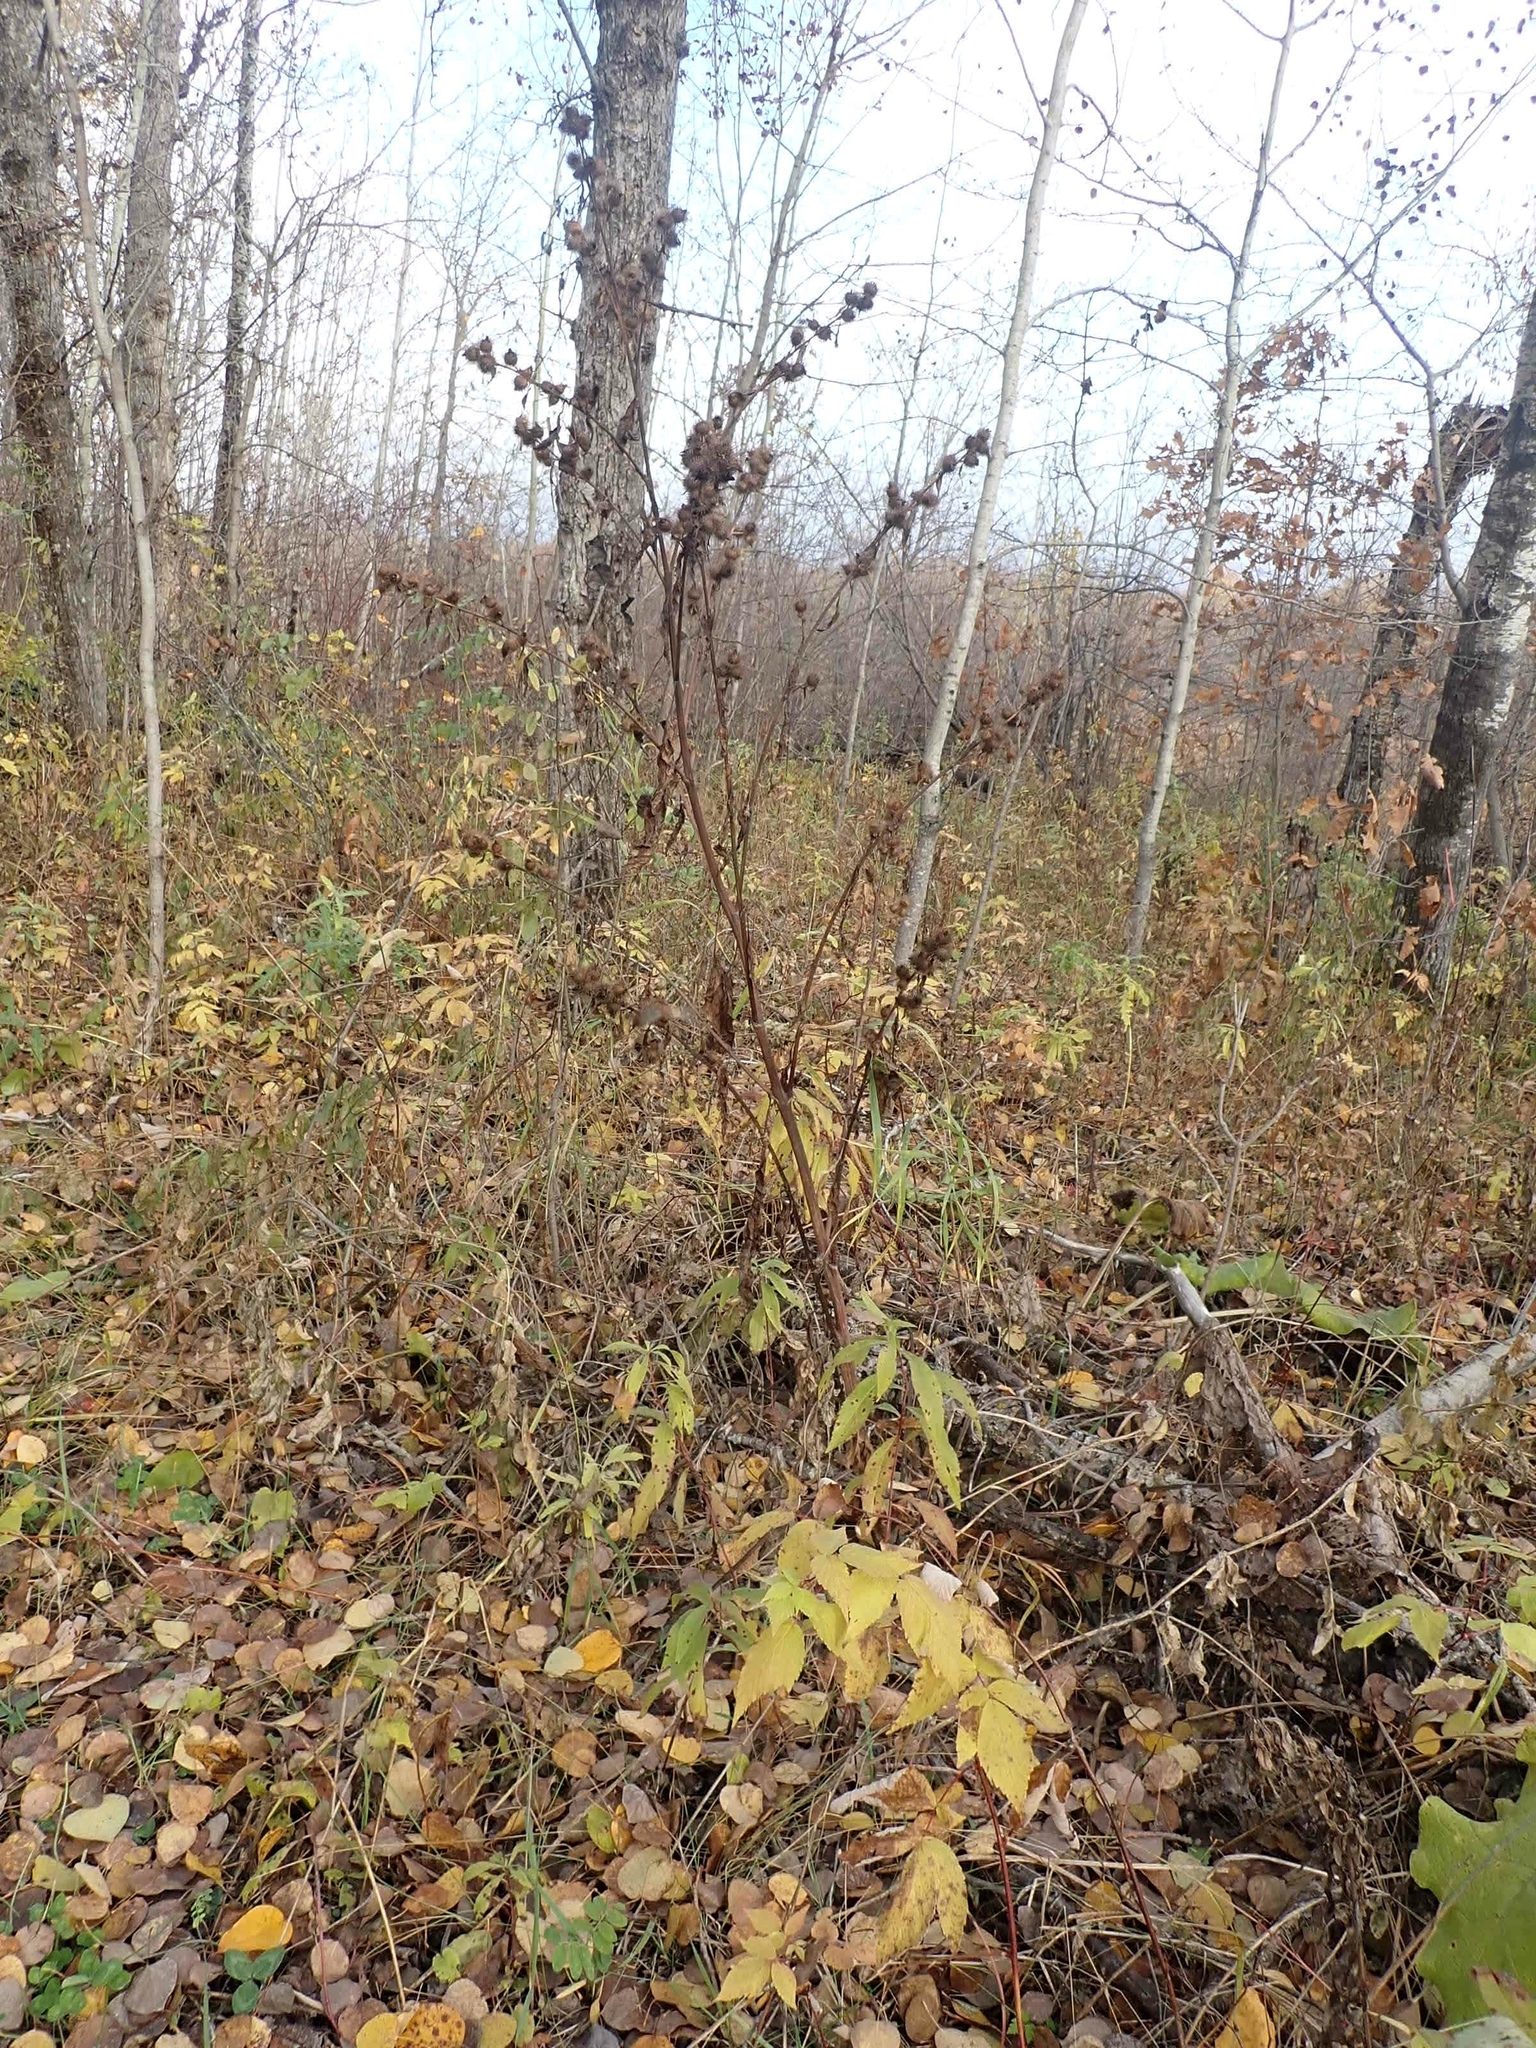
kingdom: Plantae
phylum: Tracheophyta
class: Magnoliopsida
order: Asterales
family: Asteraceae
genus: Arctium
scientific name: Arctium minus
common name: Lesser burdock
